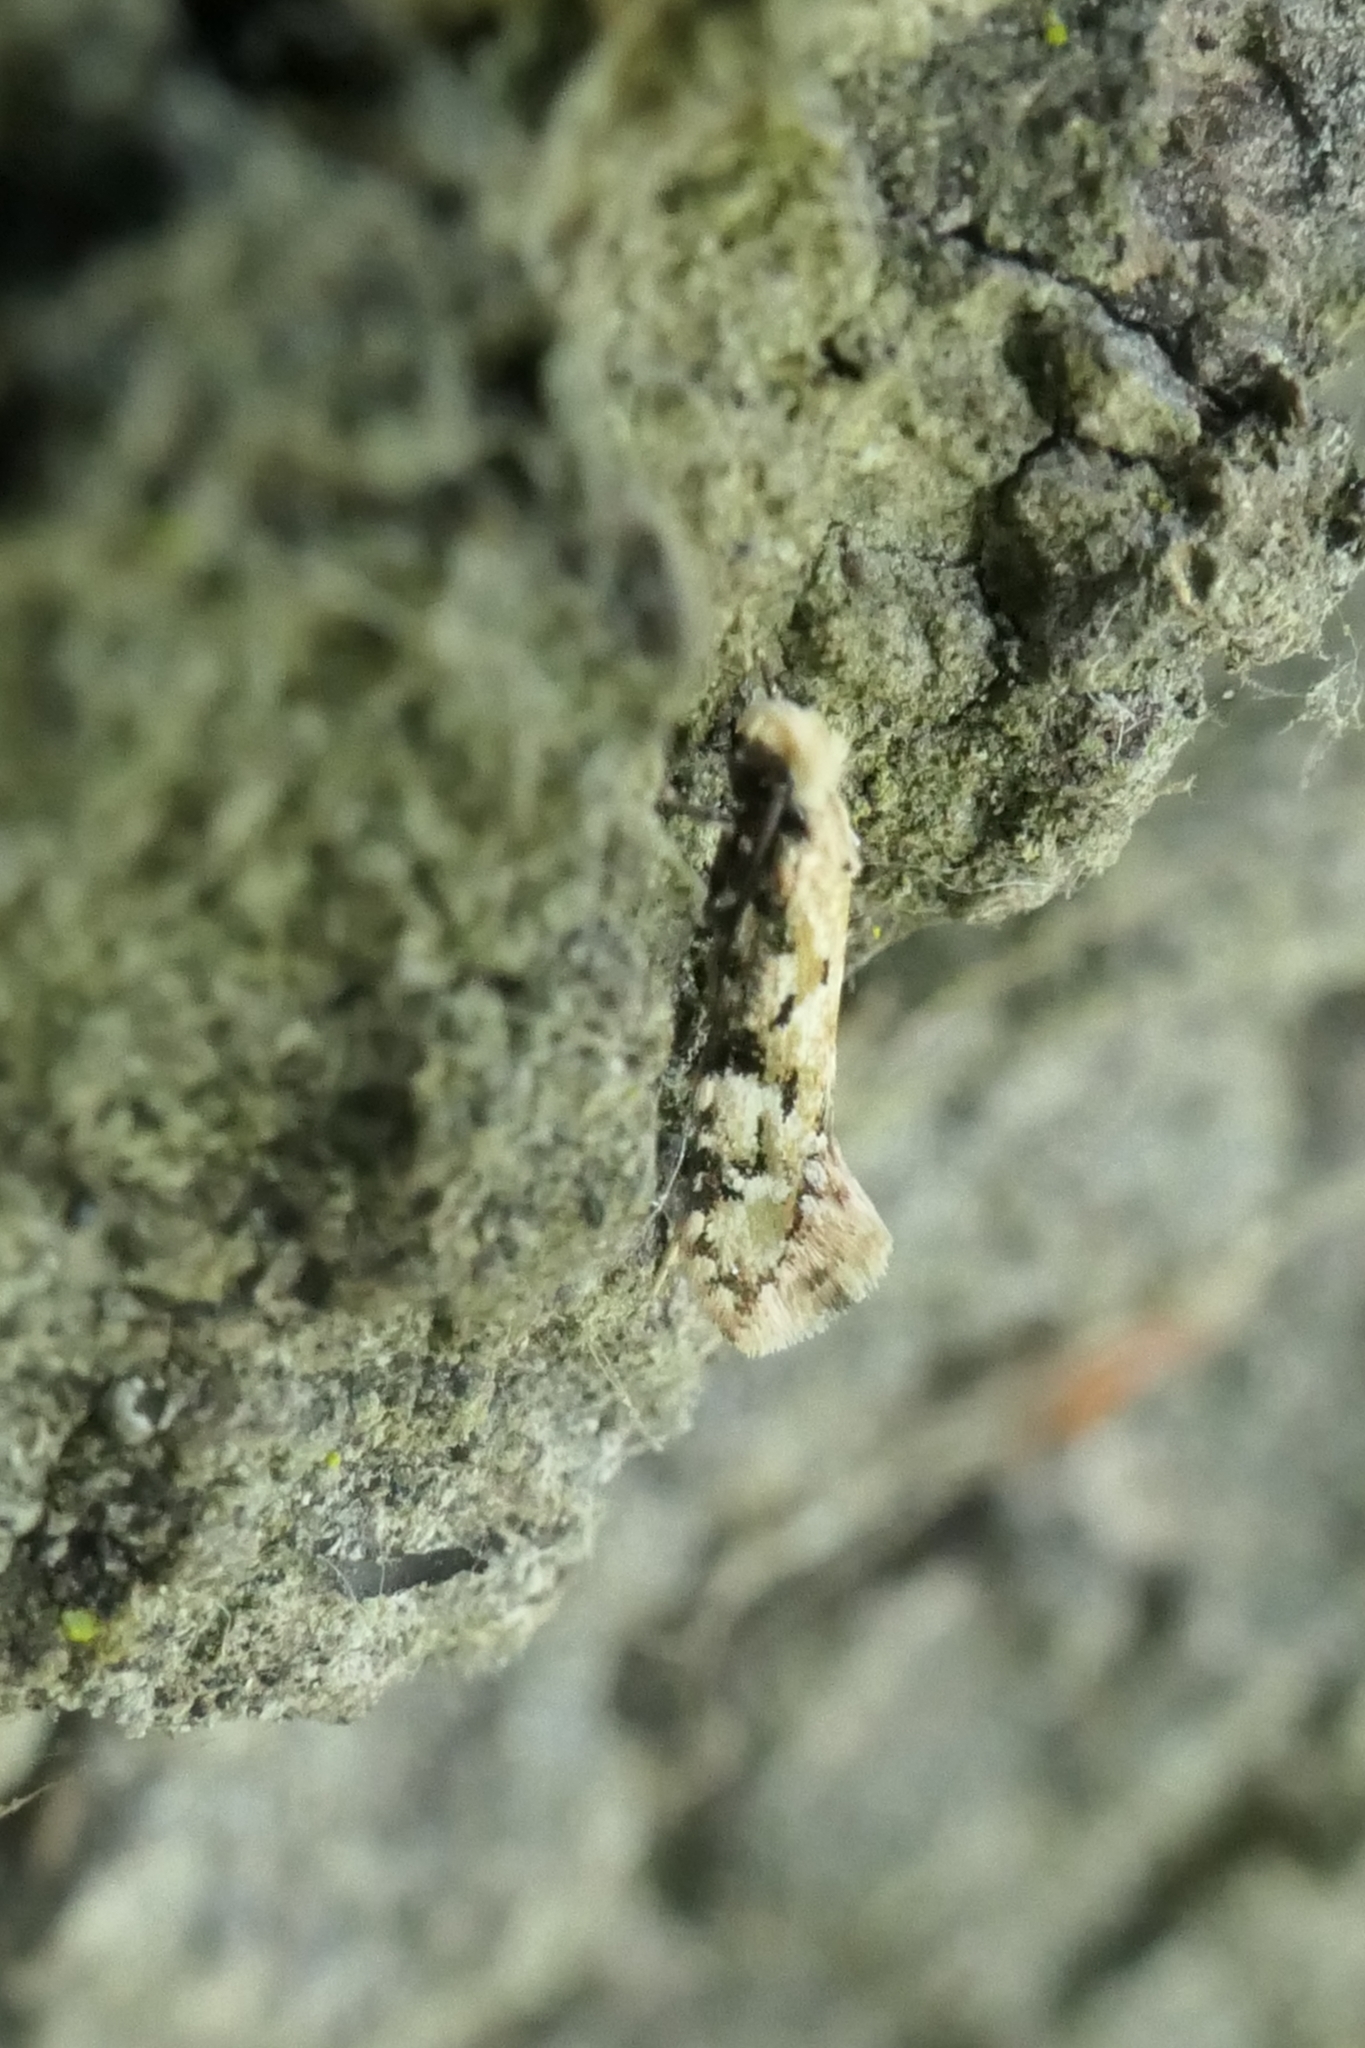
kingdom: Animalia
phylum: Arthropoda
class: Insecta
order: Lepidoptera
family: Tineidae
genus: Crypsitricha
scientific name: Crypsitricha mesotypa
